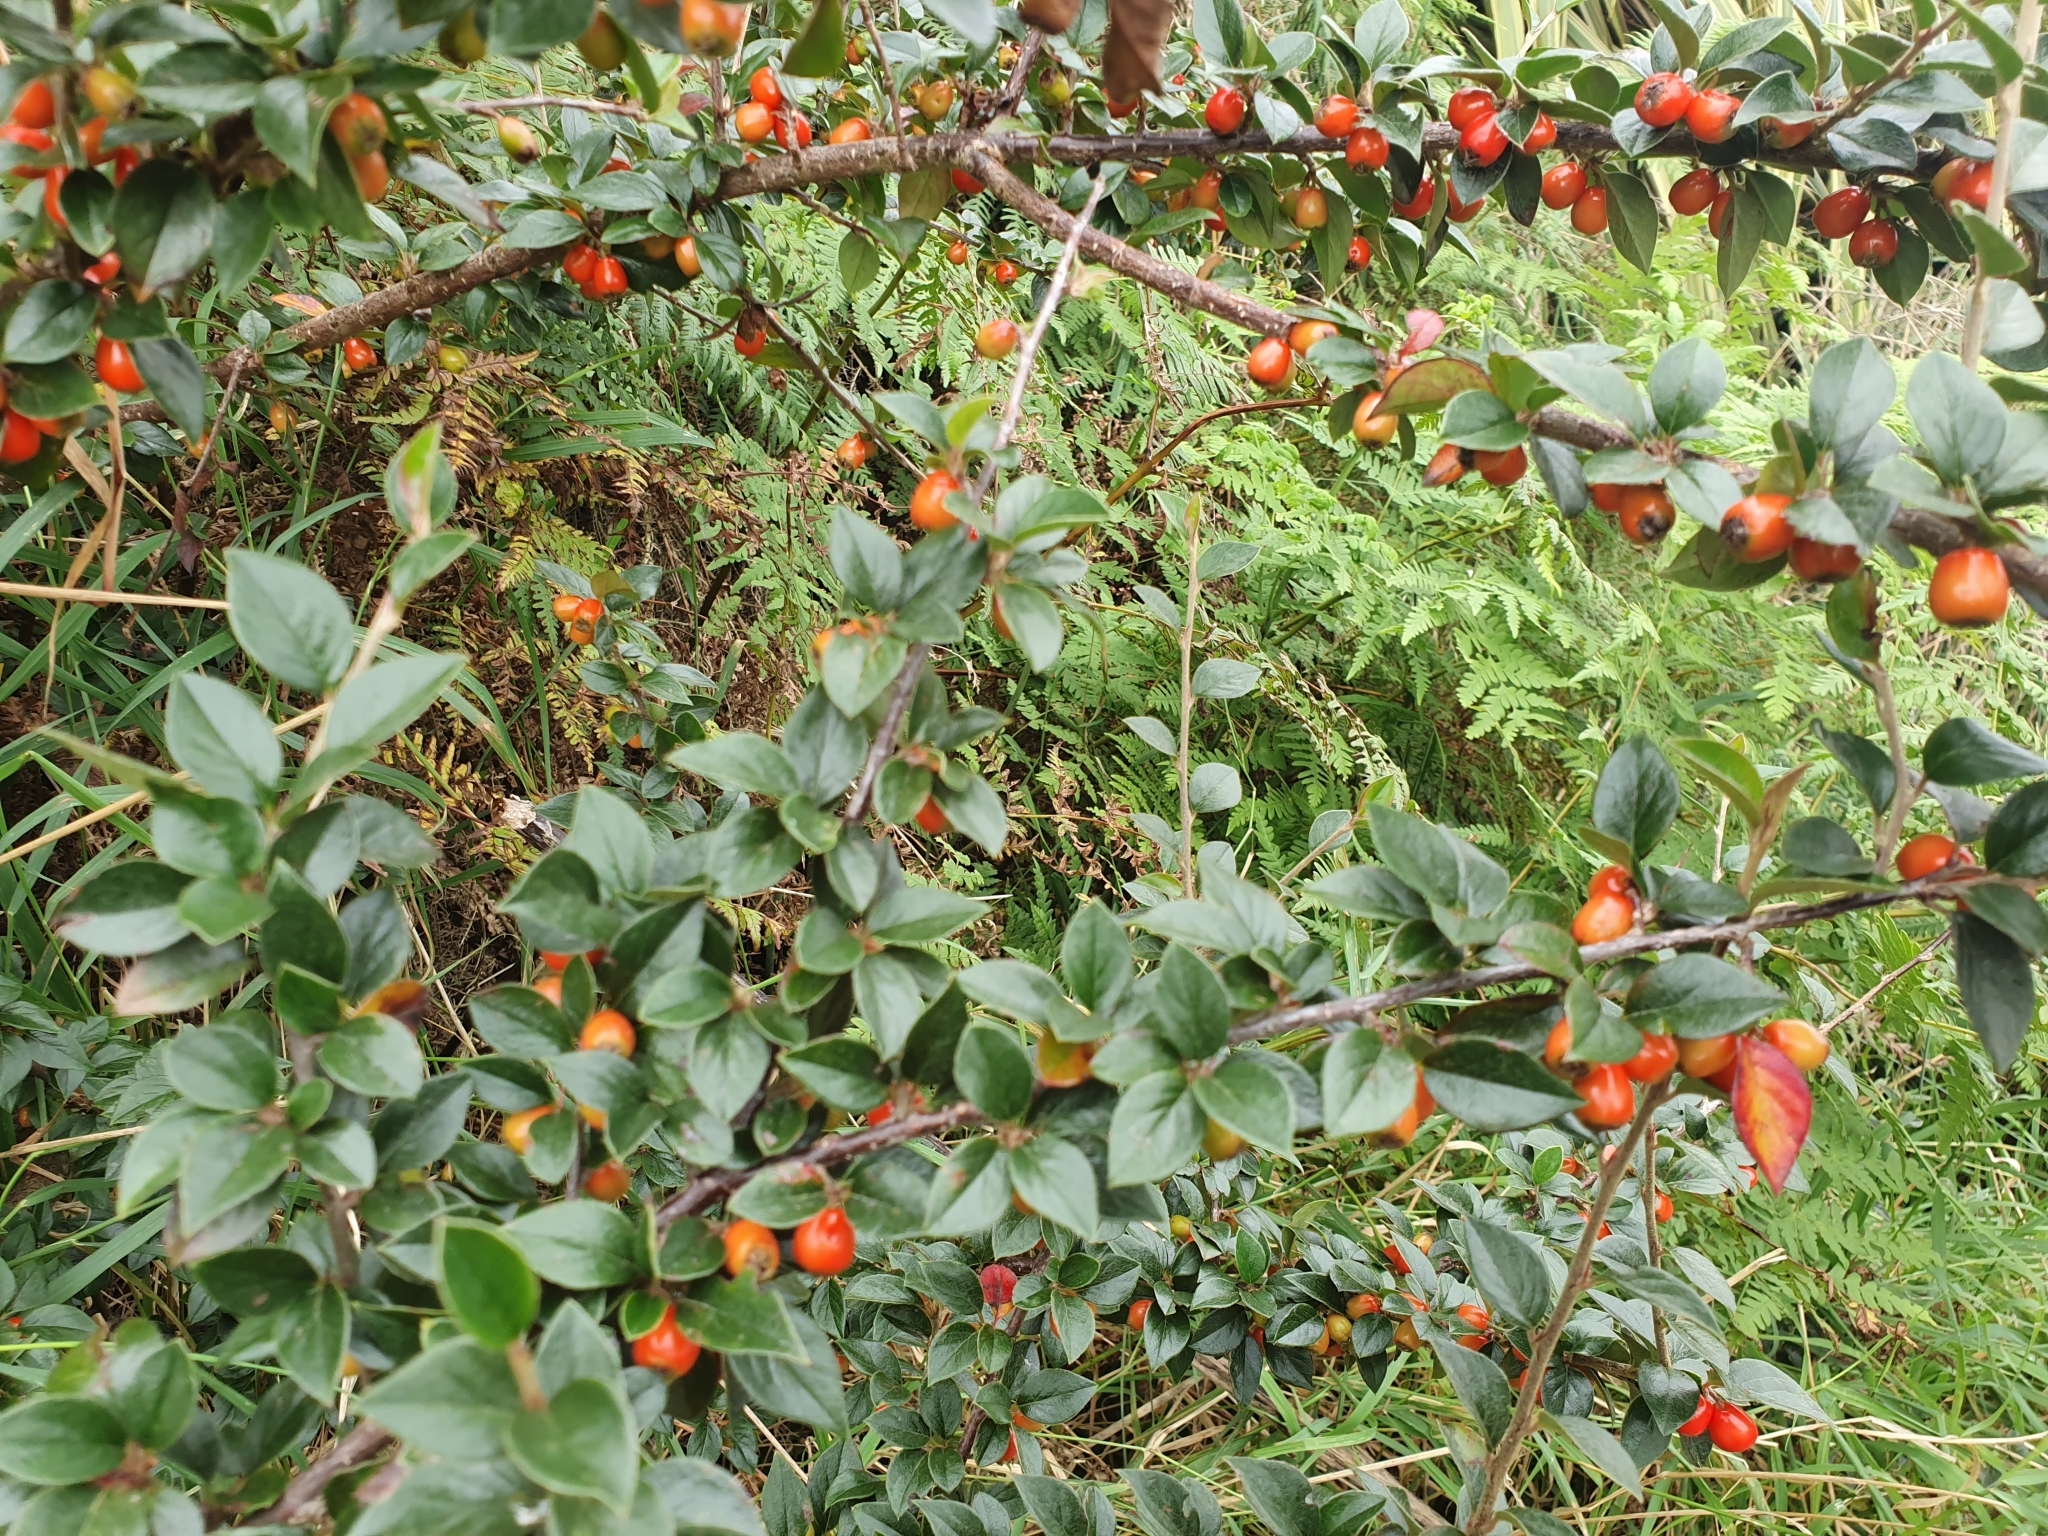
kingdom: Plantae
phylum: Tracheophyta
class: Magnoliopsida
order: Rosales
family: Rosaceae
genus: Cotoneaster
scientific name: Cotoneaster simonsii
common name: Himalayan cotoneaster
